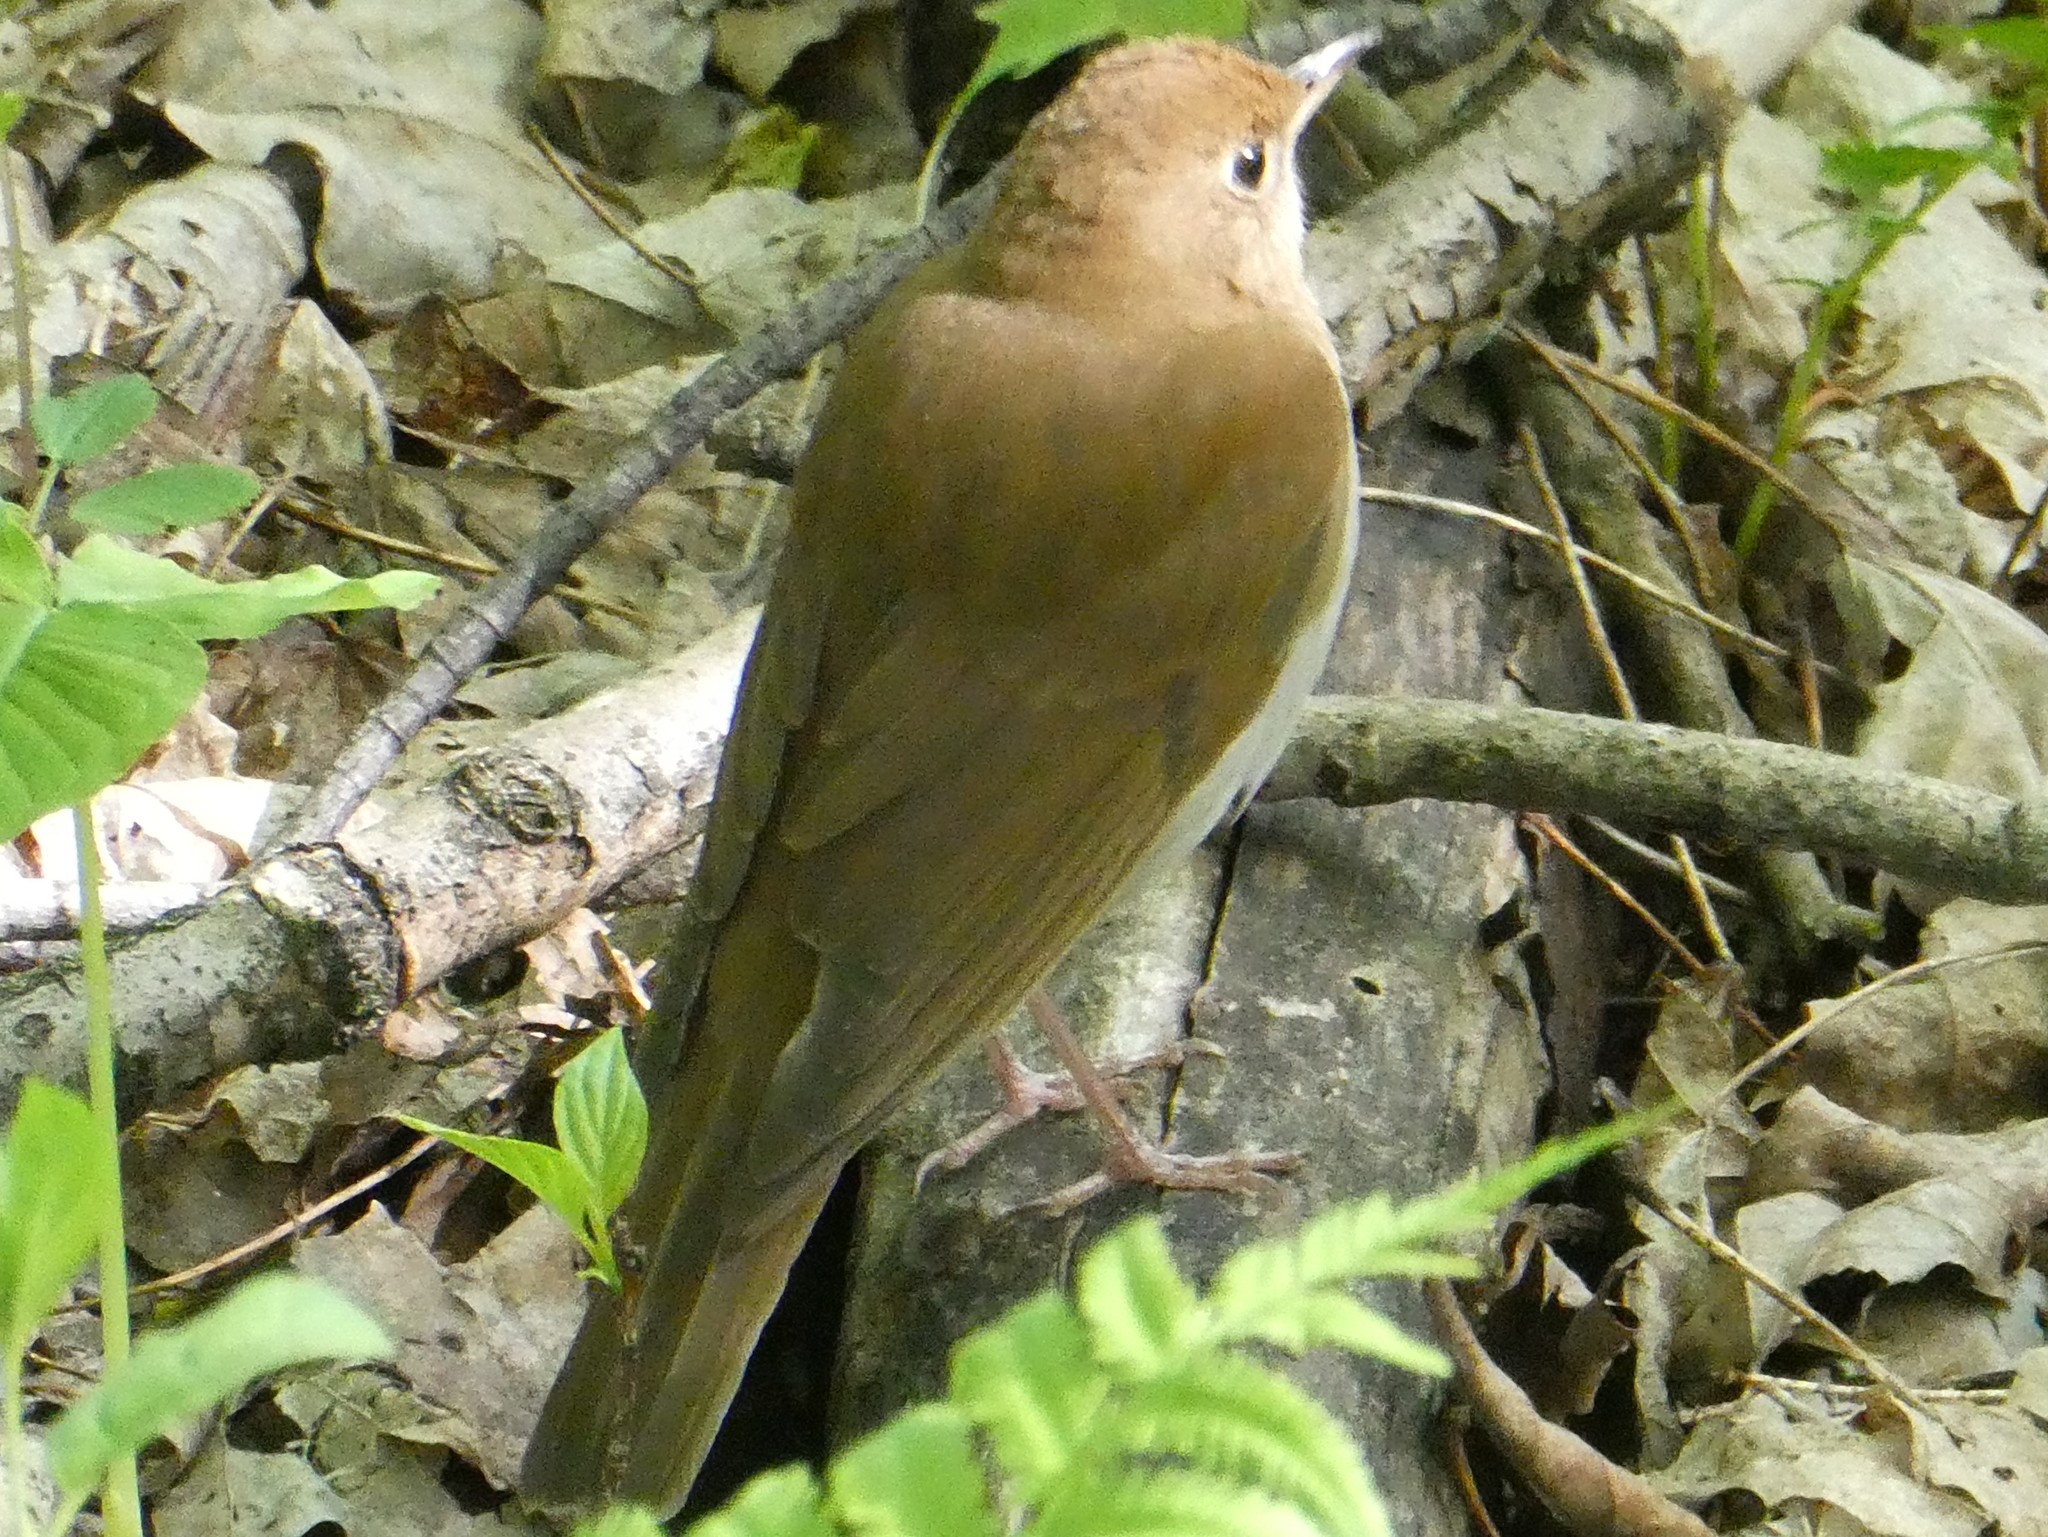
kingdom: Animalia
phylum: Chordata
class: Aves
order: Passeriformes
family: Turdidae
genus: Catharus
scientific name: Catharus fuscescens
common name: Veery
